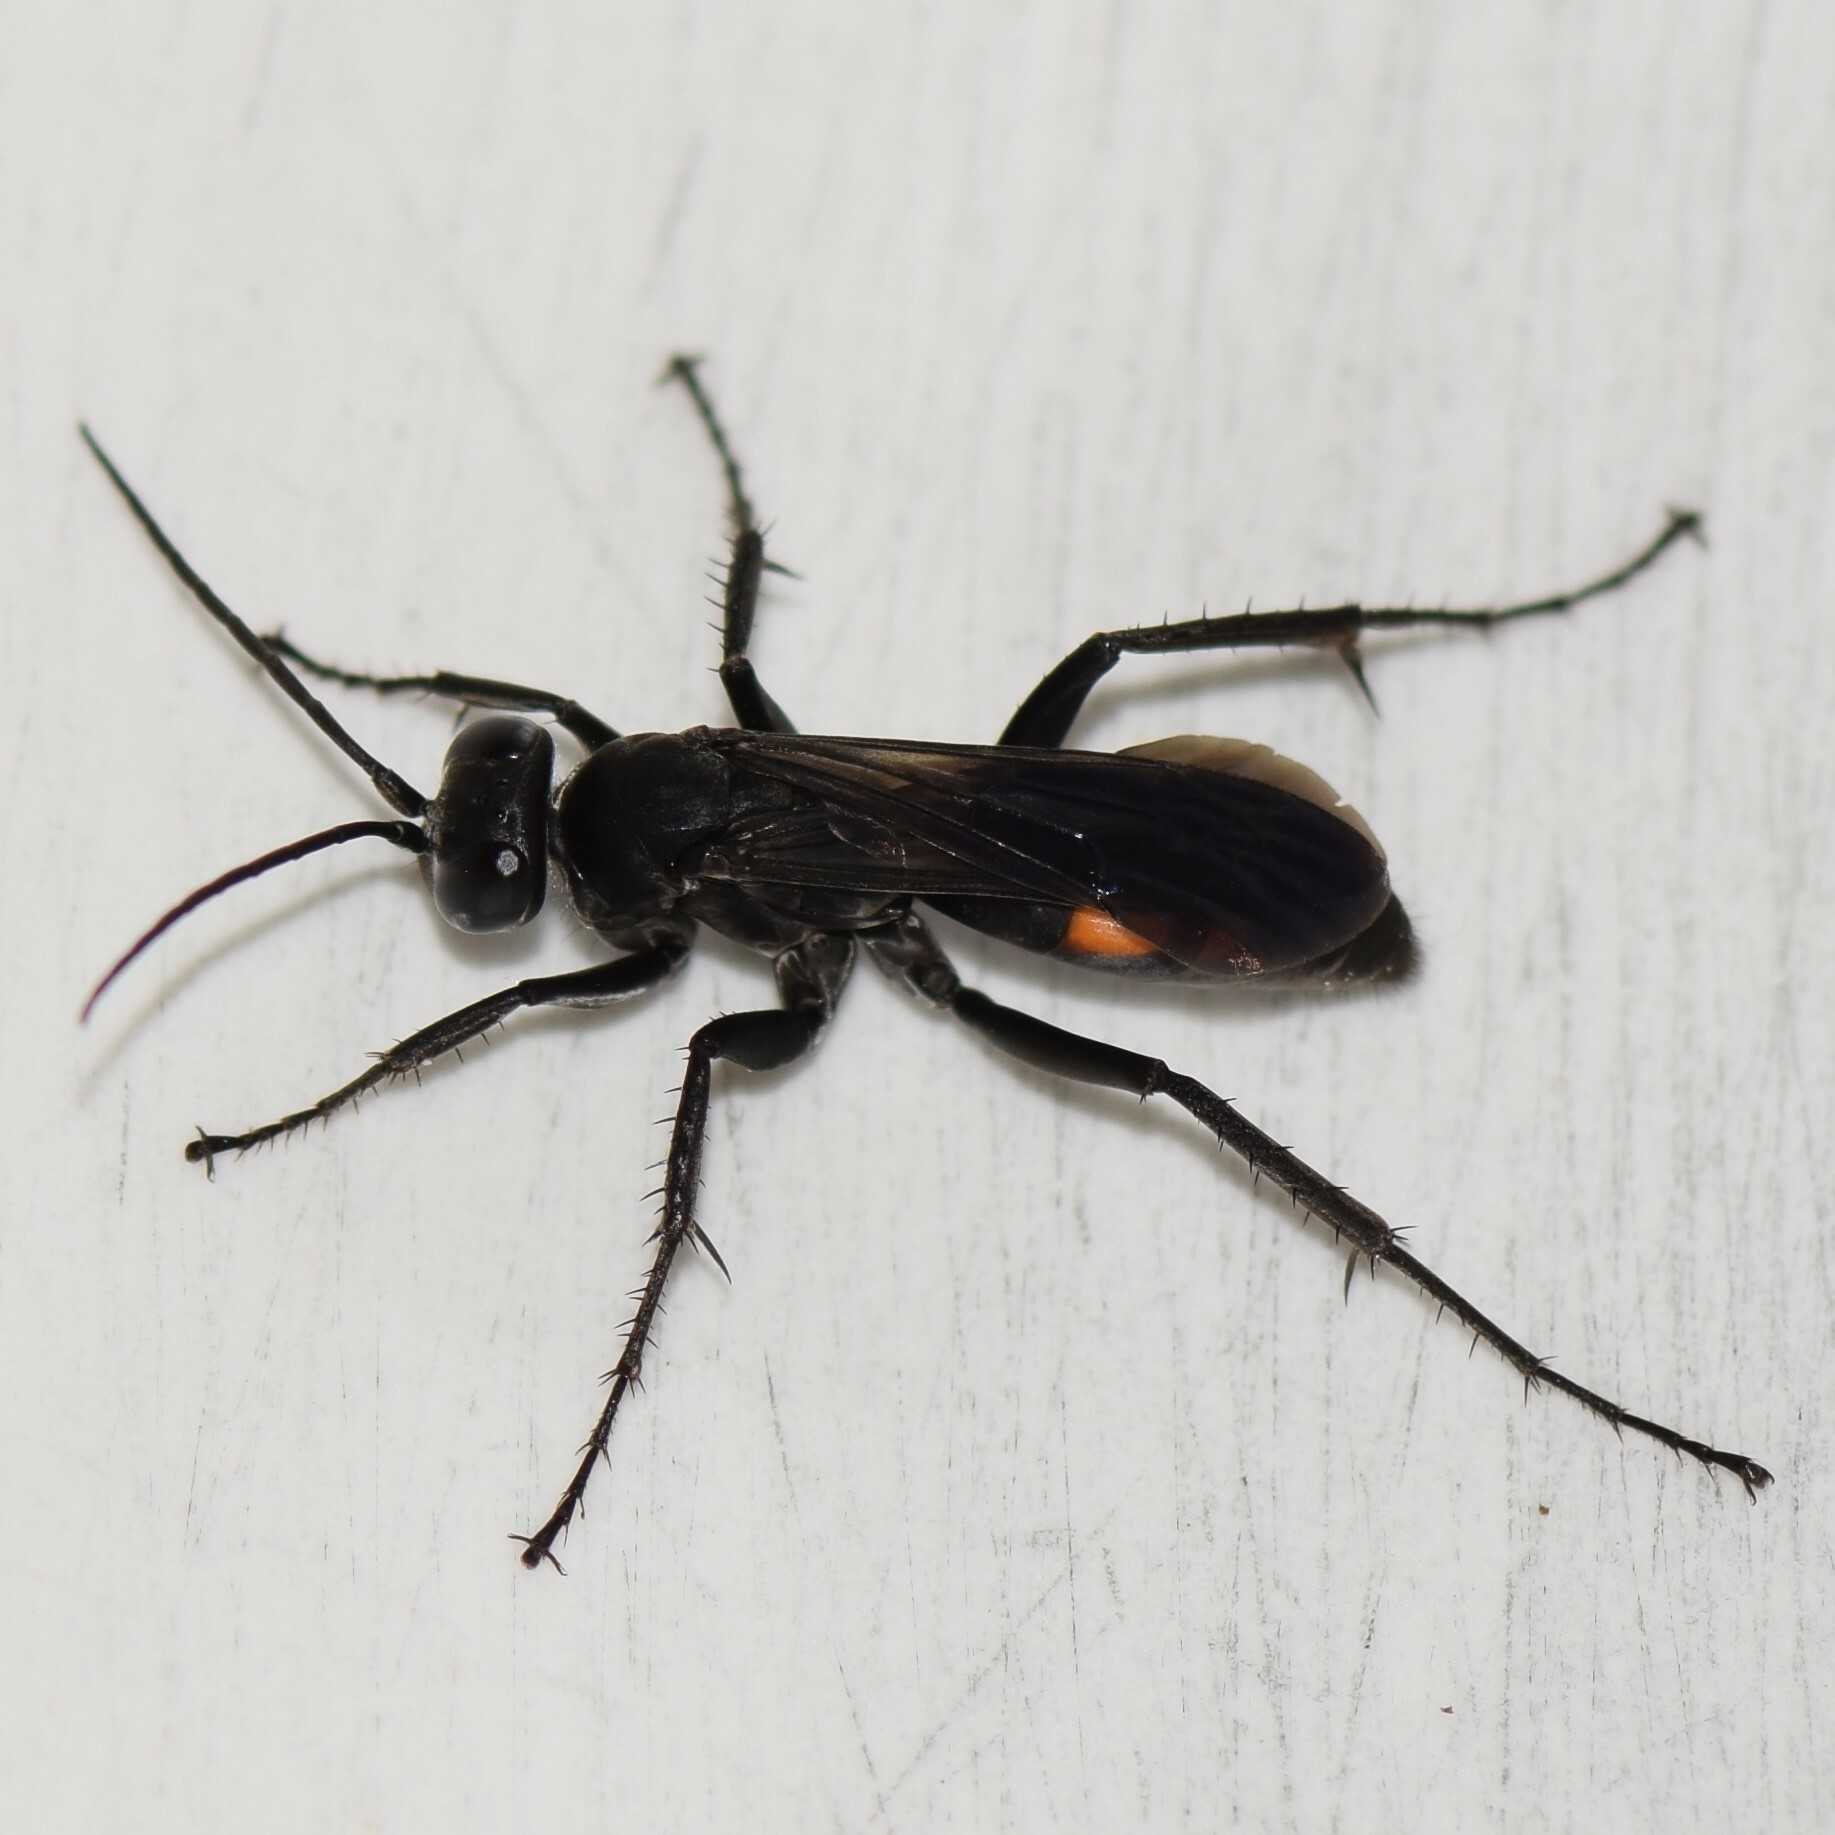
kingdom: Animalia
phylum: Arthropoda
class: Insecta
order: Hymenoptera
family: Pompilidae
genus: Anoplius
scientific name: Anoplius carolinus
